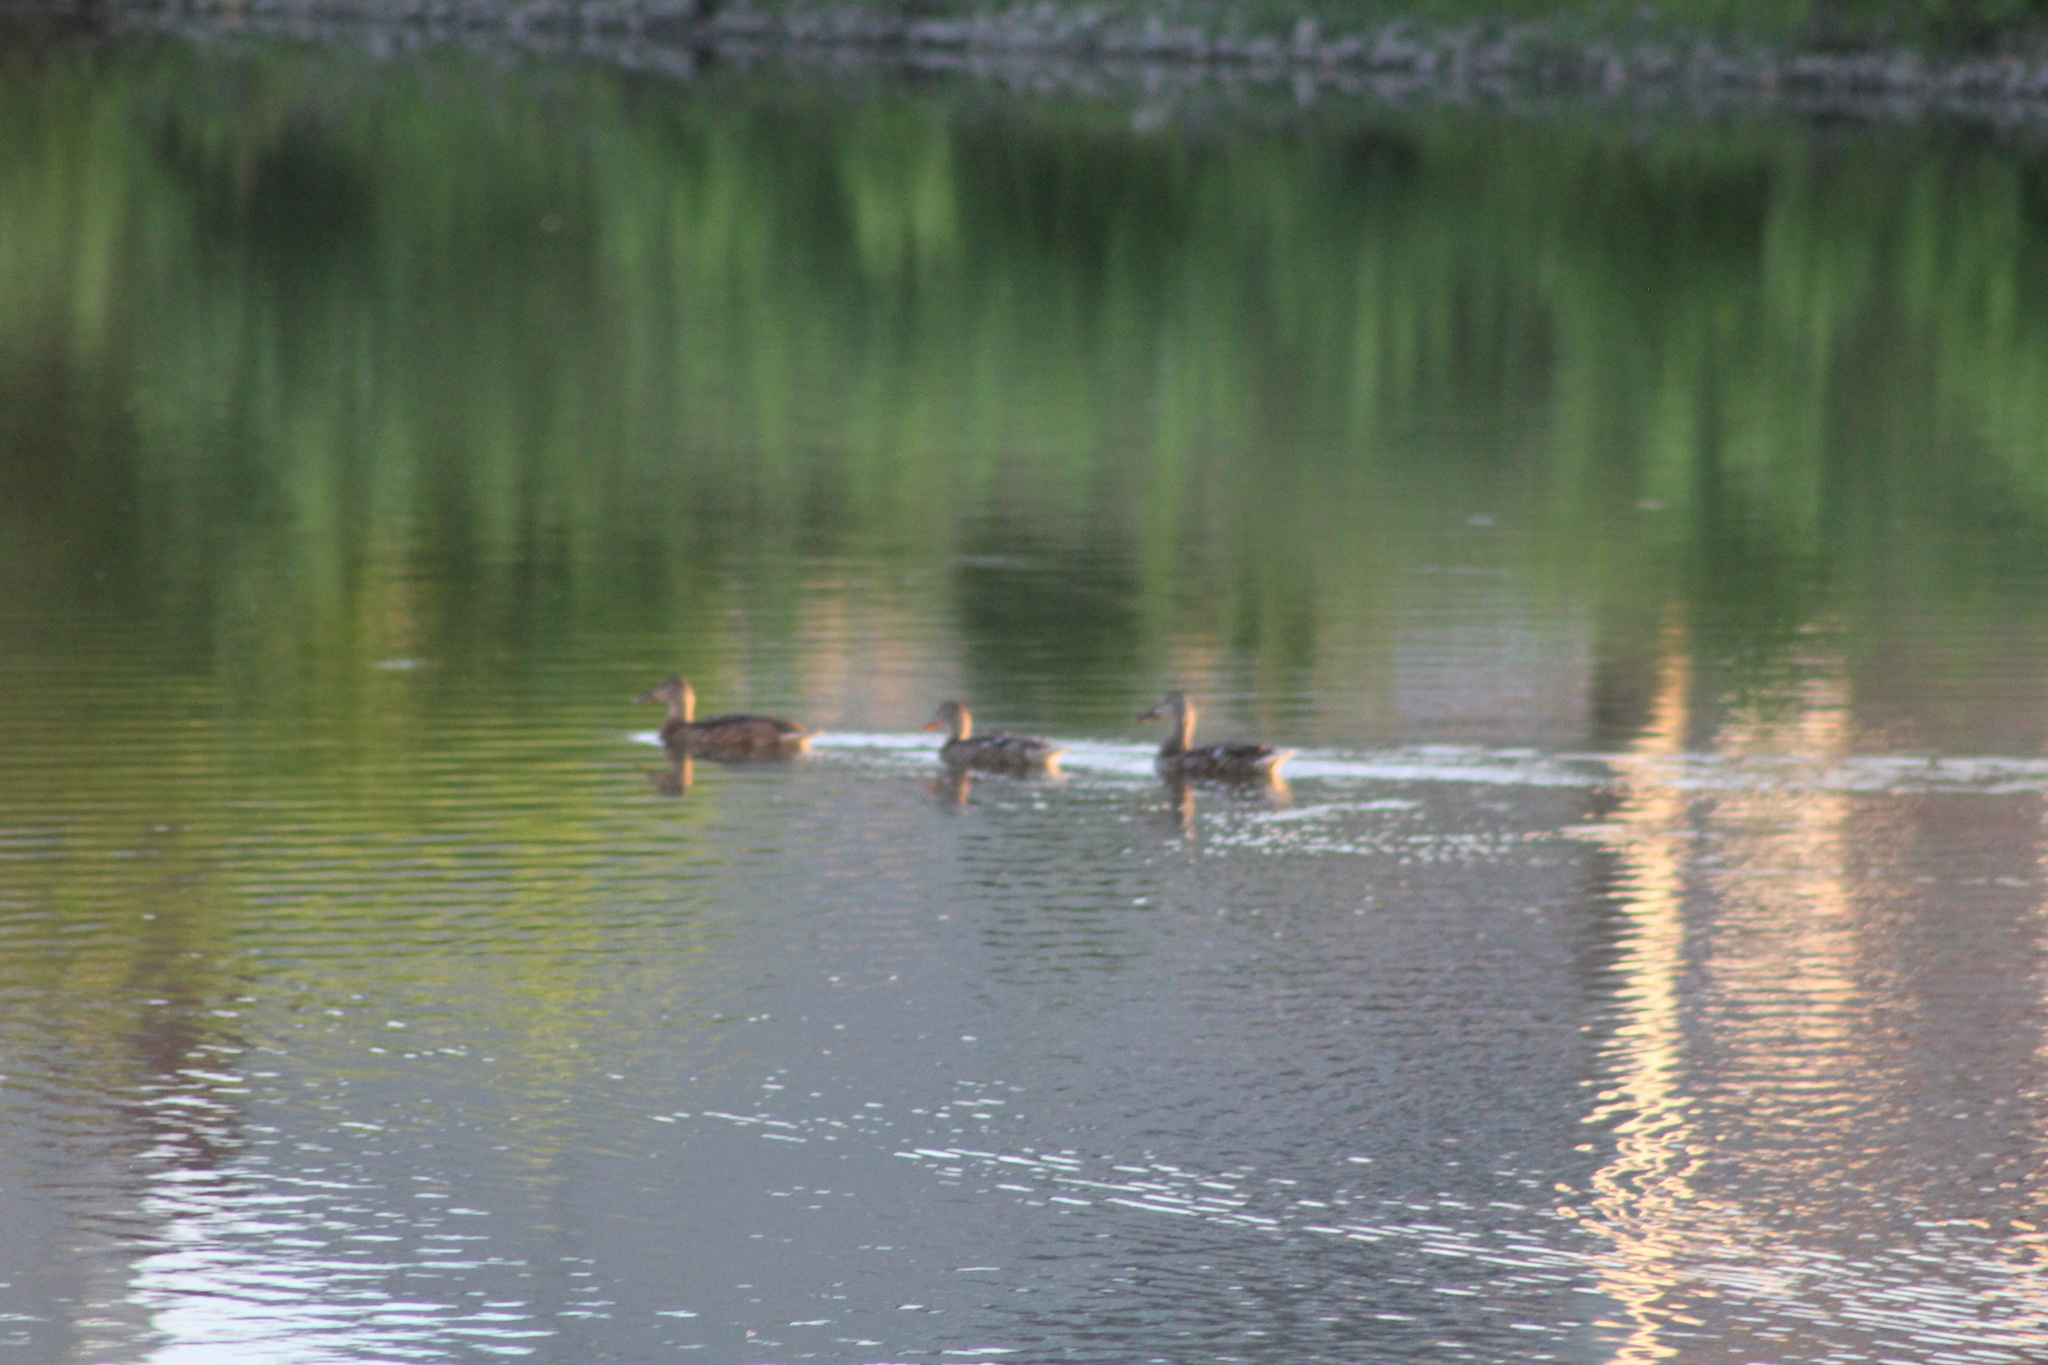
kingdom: Animalia
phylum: Chordata
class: Aves
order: Anseriformes
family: Anatidae
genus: Anas
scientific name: Anas platyrhynchos
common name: Mallard
